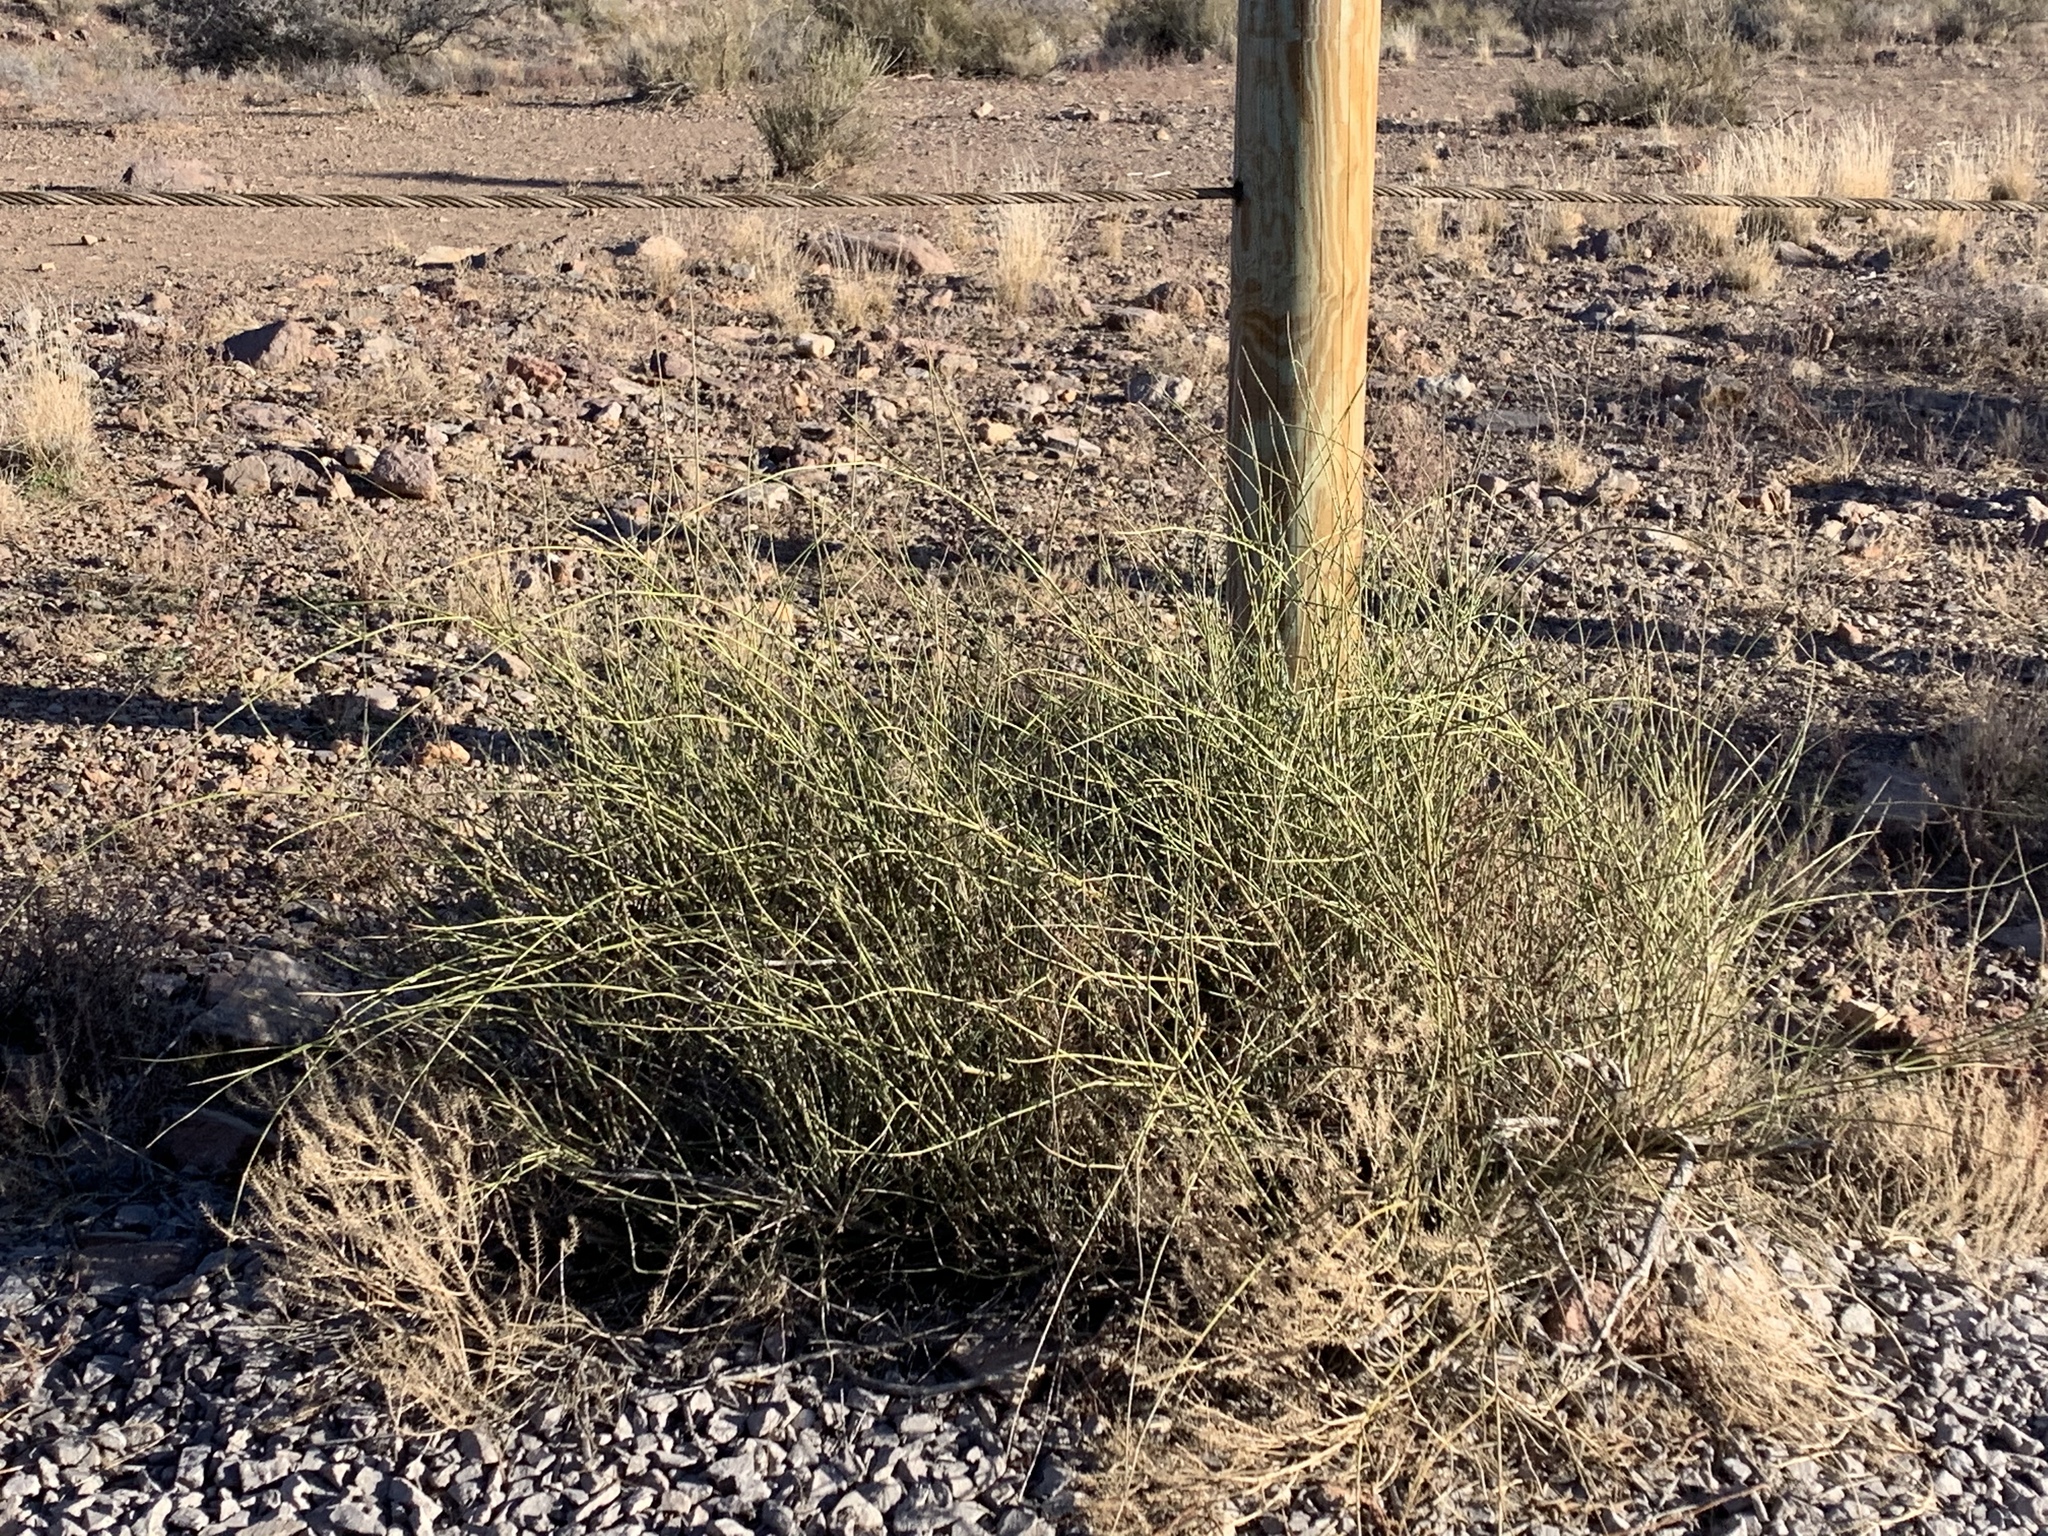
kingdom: Plantae
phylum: Tracheophyta
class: Gnetopsida
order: Ephedrales
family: Ephedraceae
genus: Ephedra
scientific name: Ephedra trifurca
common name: Mexican-tea
